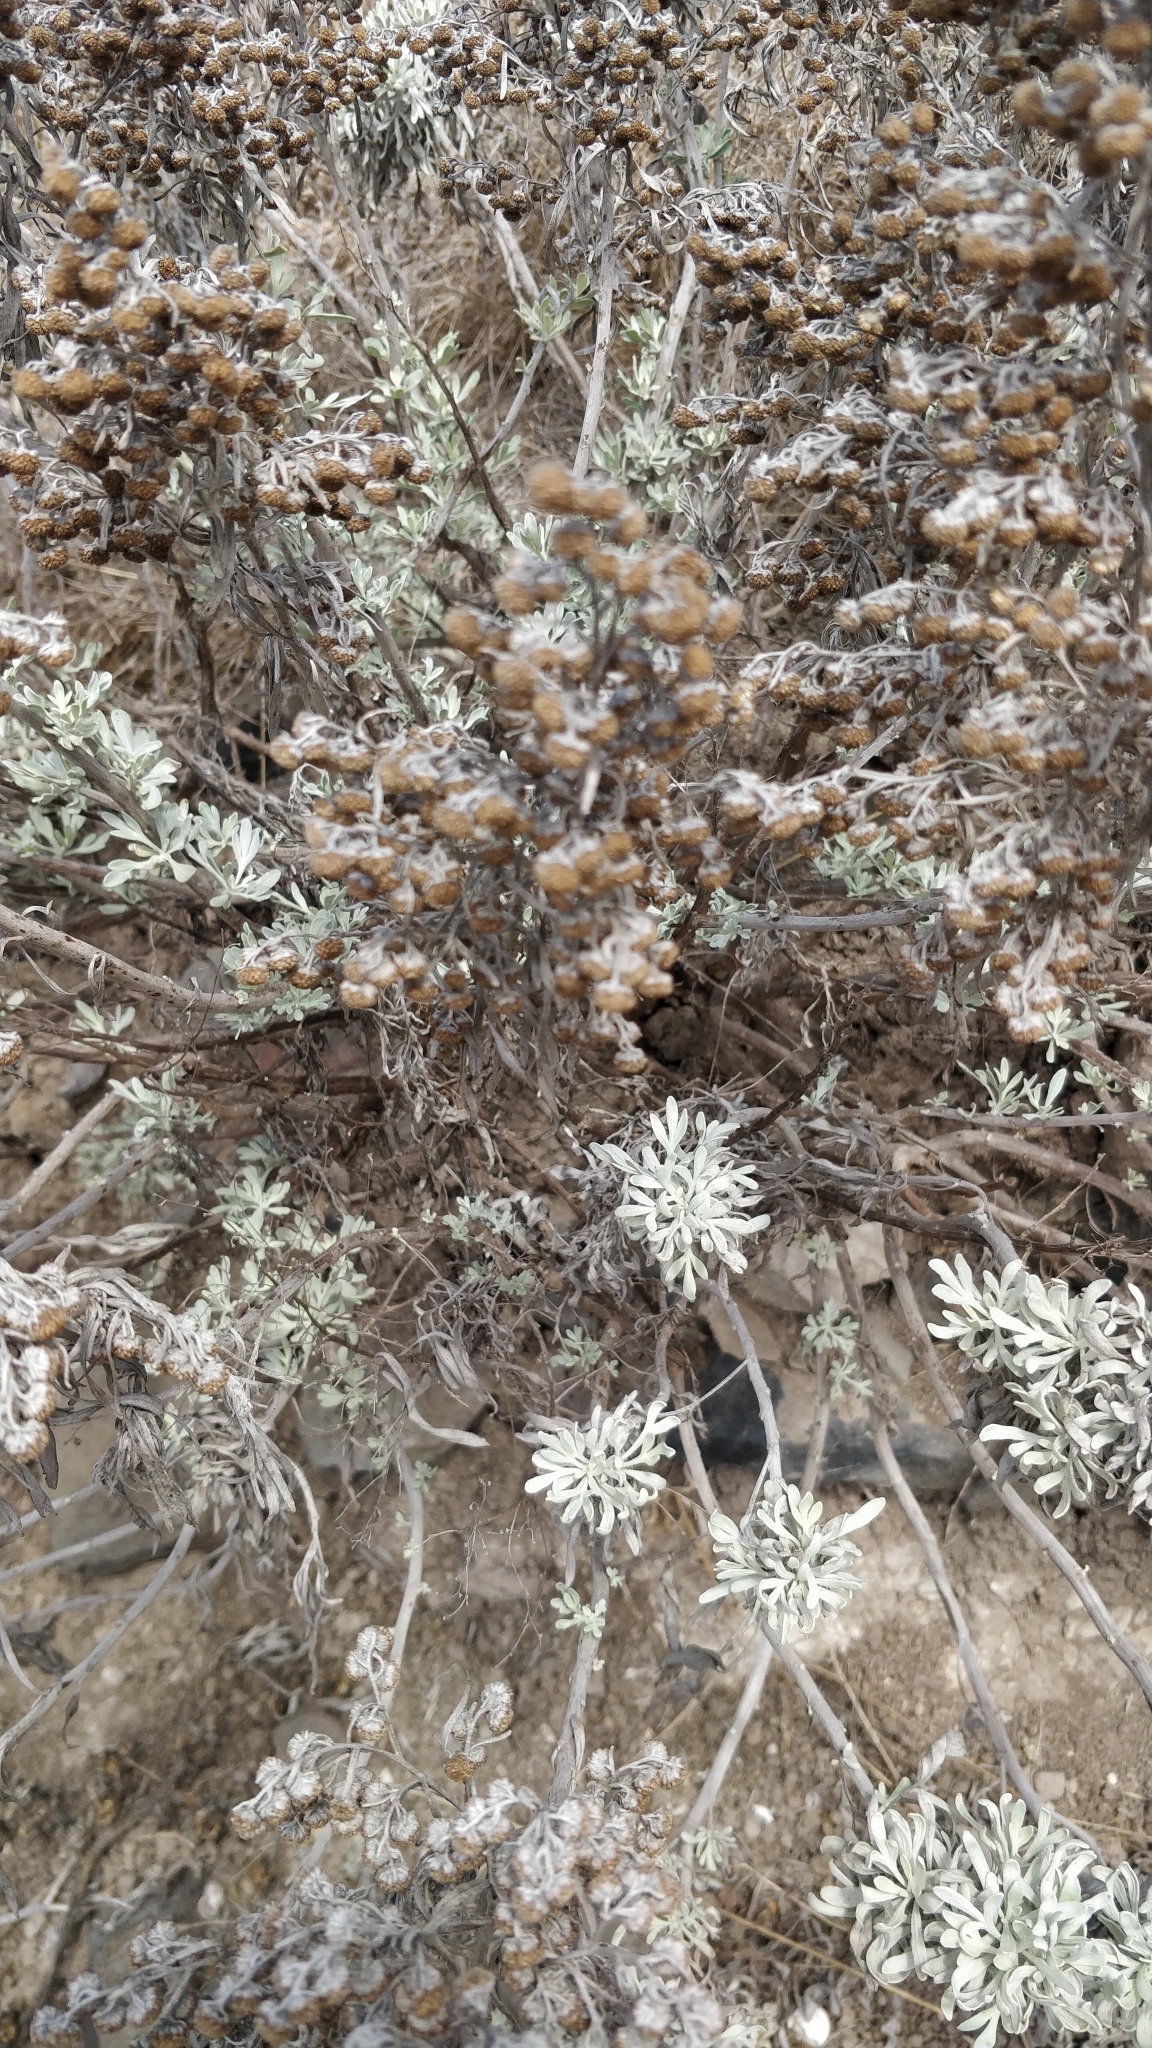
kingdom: Plantae
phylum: Tracheophyta
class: Magnoliopsida
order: Asterales
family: Asteraceae
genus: Artemisia
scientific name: Artemisia argentea
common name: Madeira wormwood
